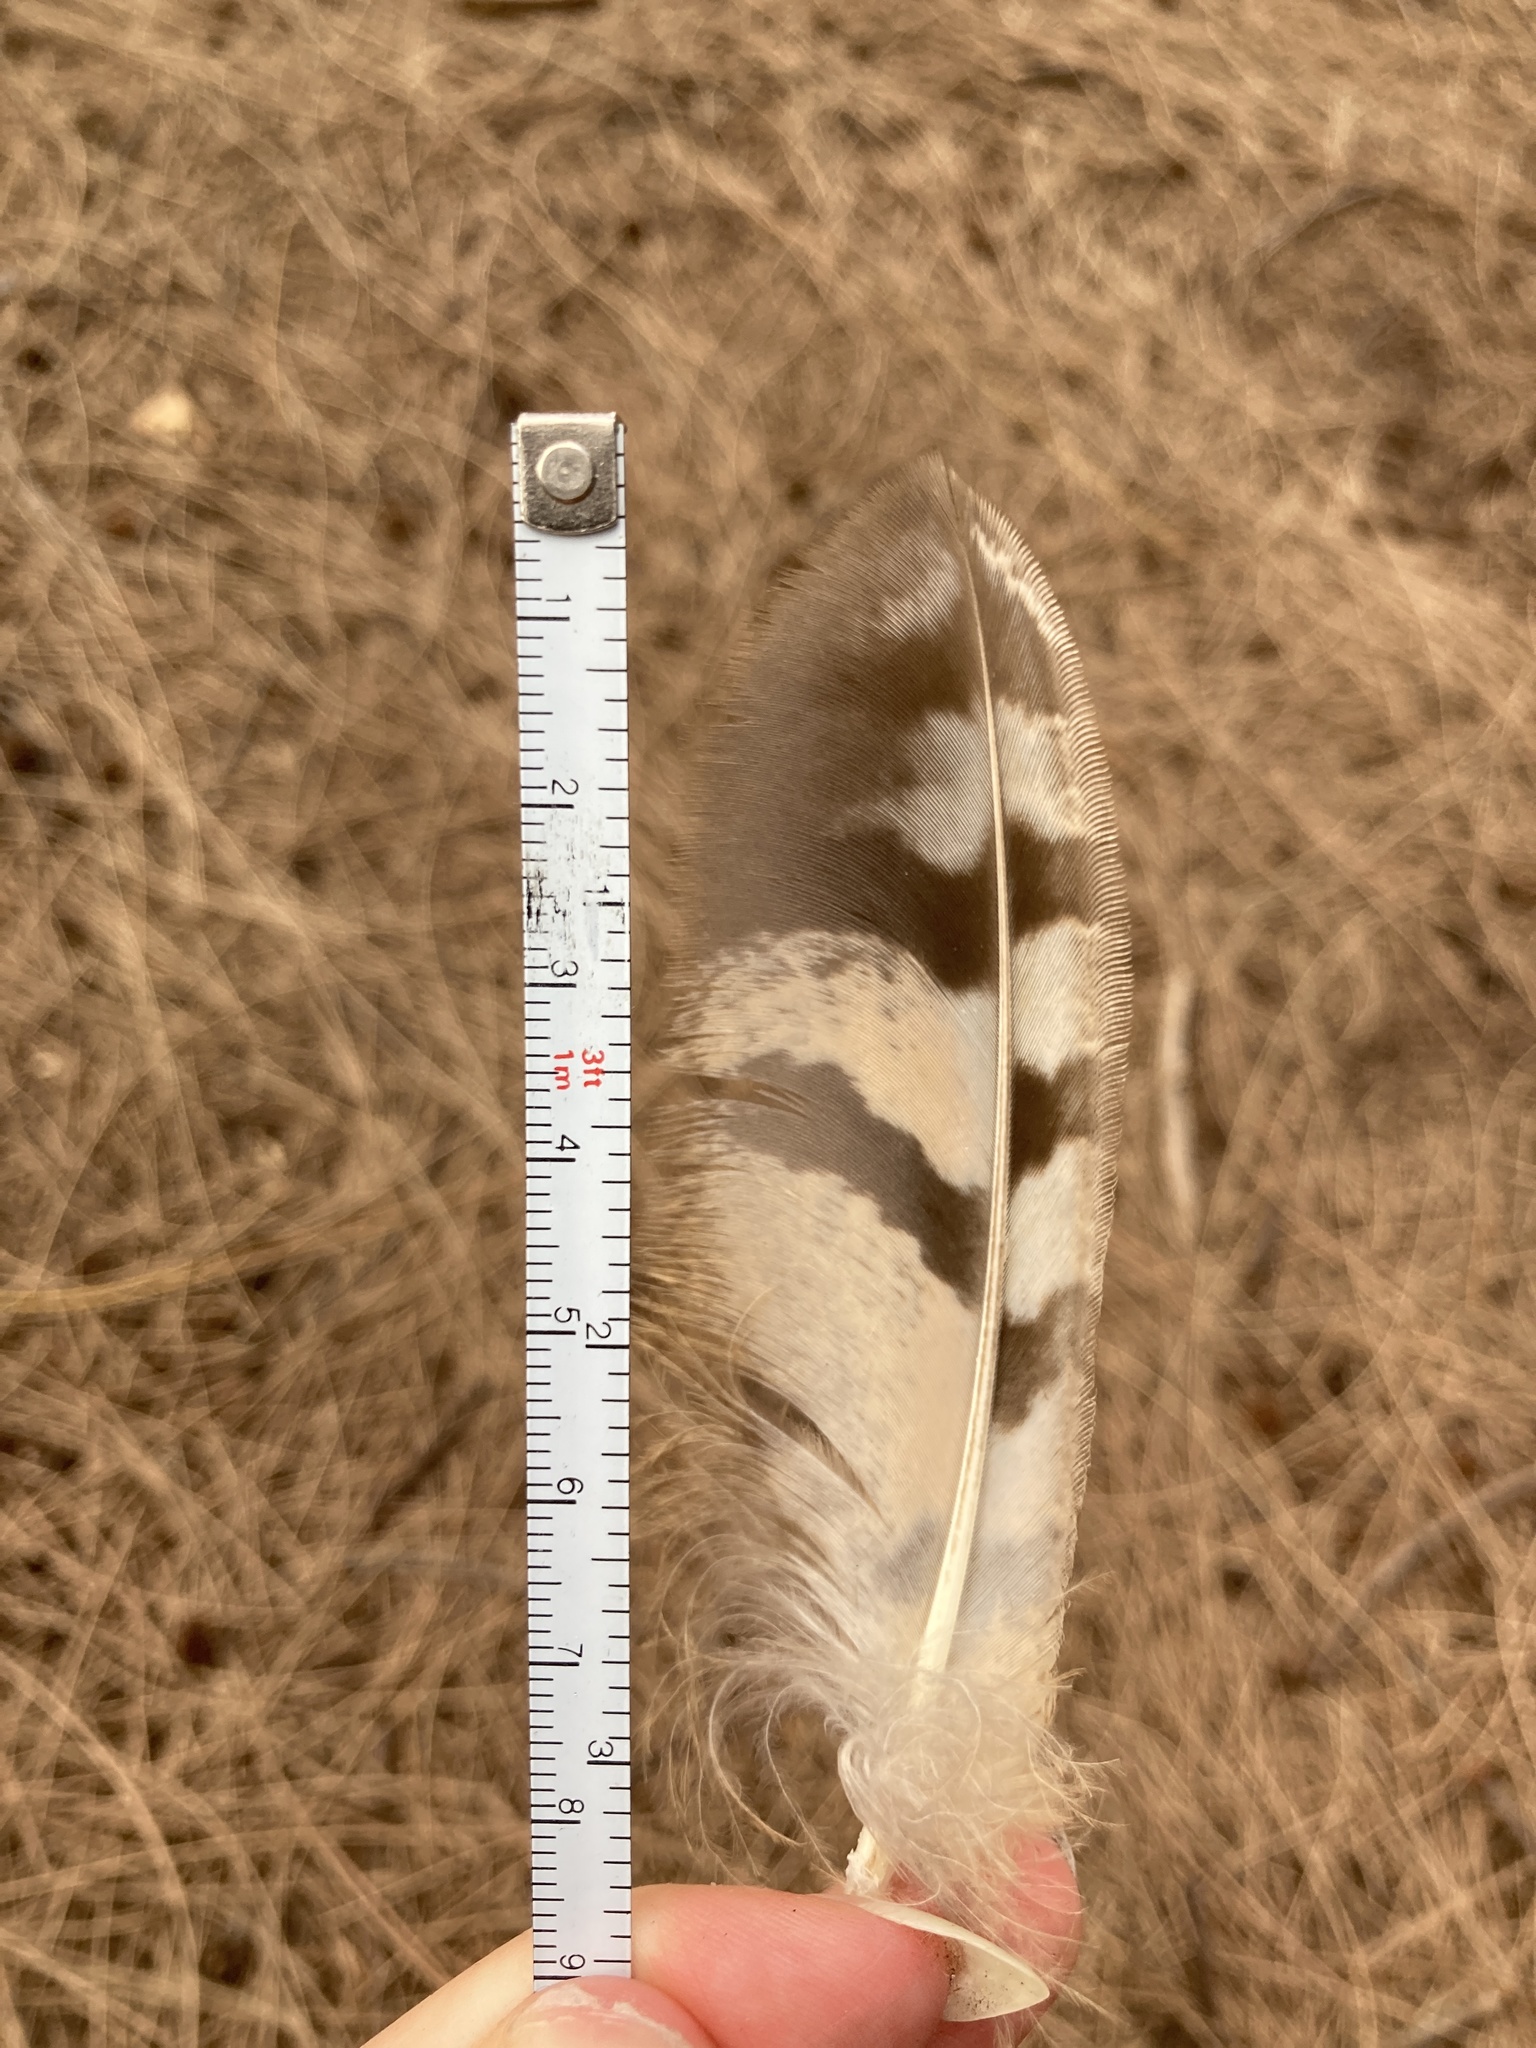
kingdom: Animalia
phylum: Chordata
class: Aves
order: Strigiformes
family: Strigidae
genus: Bubo
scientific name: Bubo virginianus
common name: Great horned owl
